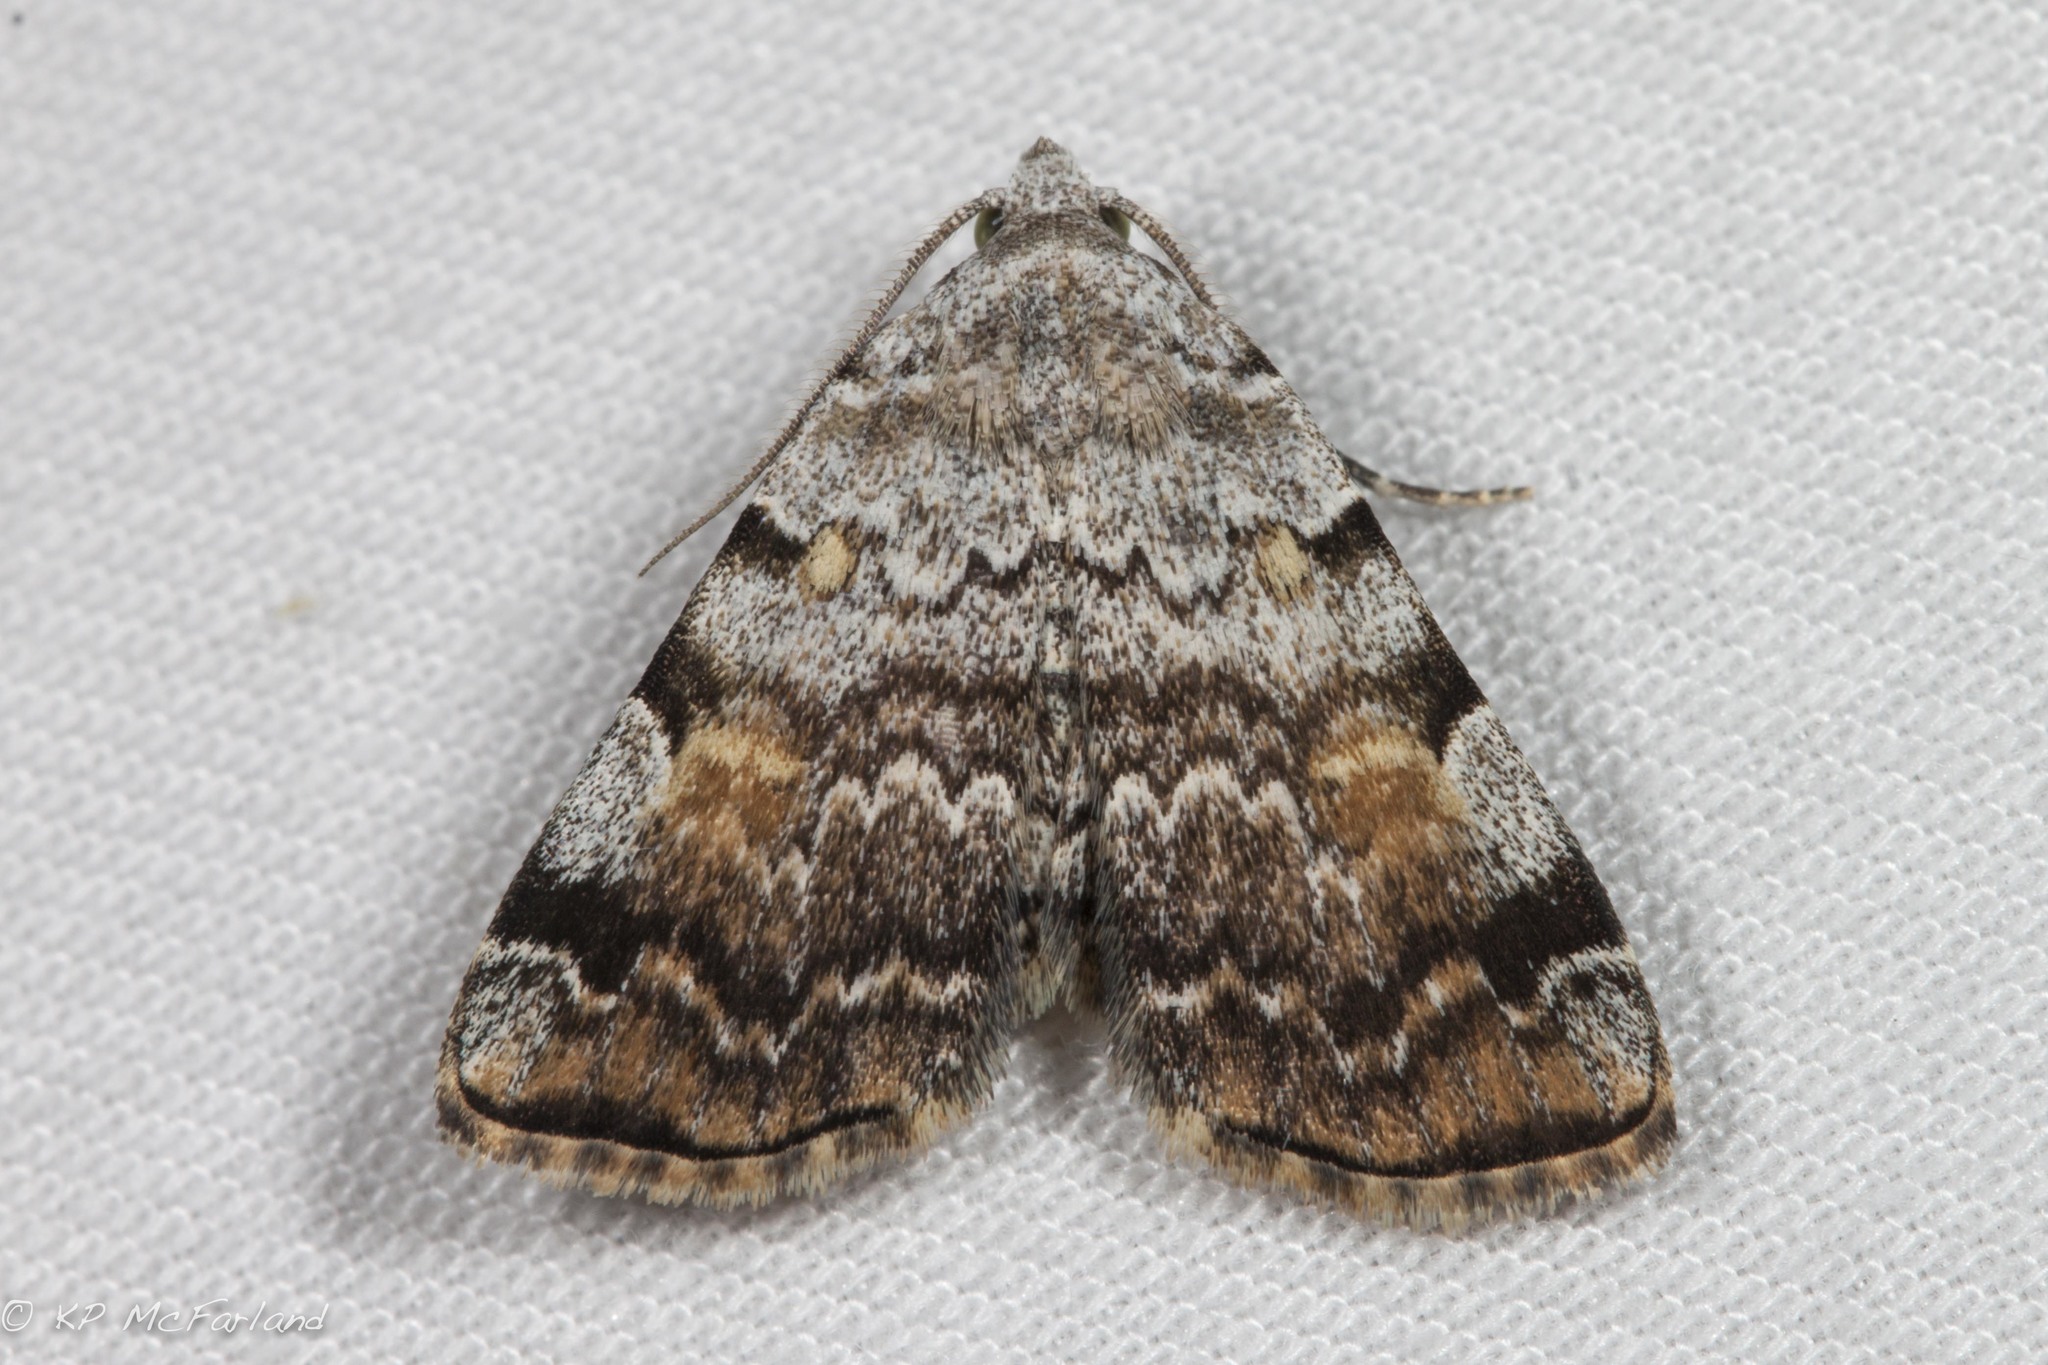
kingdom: Animalia
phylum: Arthropoda
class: Insecta
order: Lepidoptera
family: Erebidae
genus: Idia
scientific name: Idia americalis
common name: American idia moth
